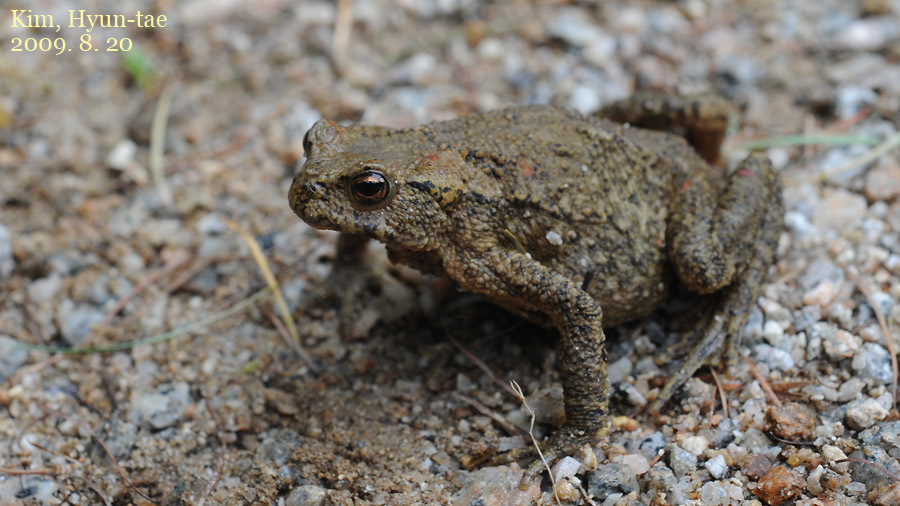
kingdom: Animalia
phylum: Chordata
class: Amphibia
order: Anura
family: Bufonidae
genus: Bufo
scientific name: Bufo stejnegeri
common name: Water toad
